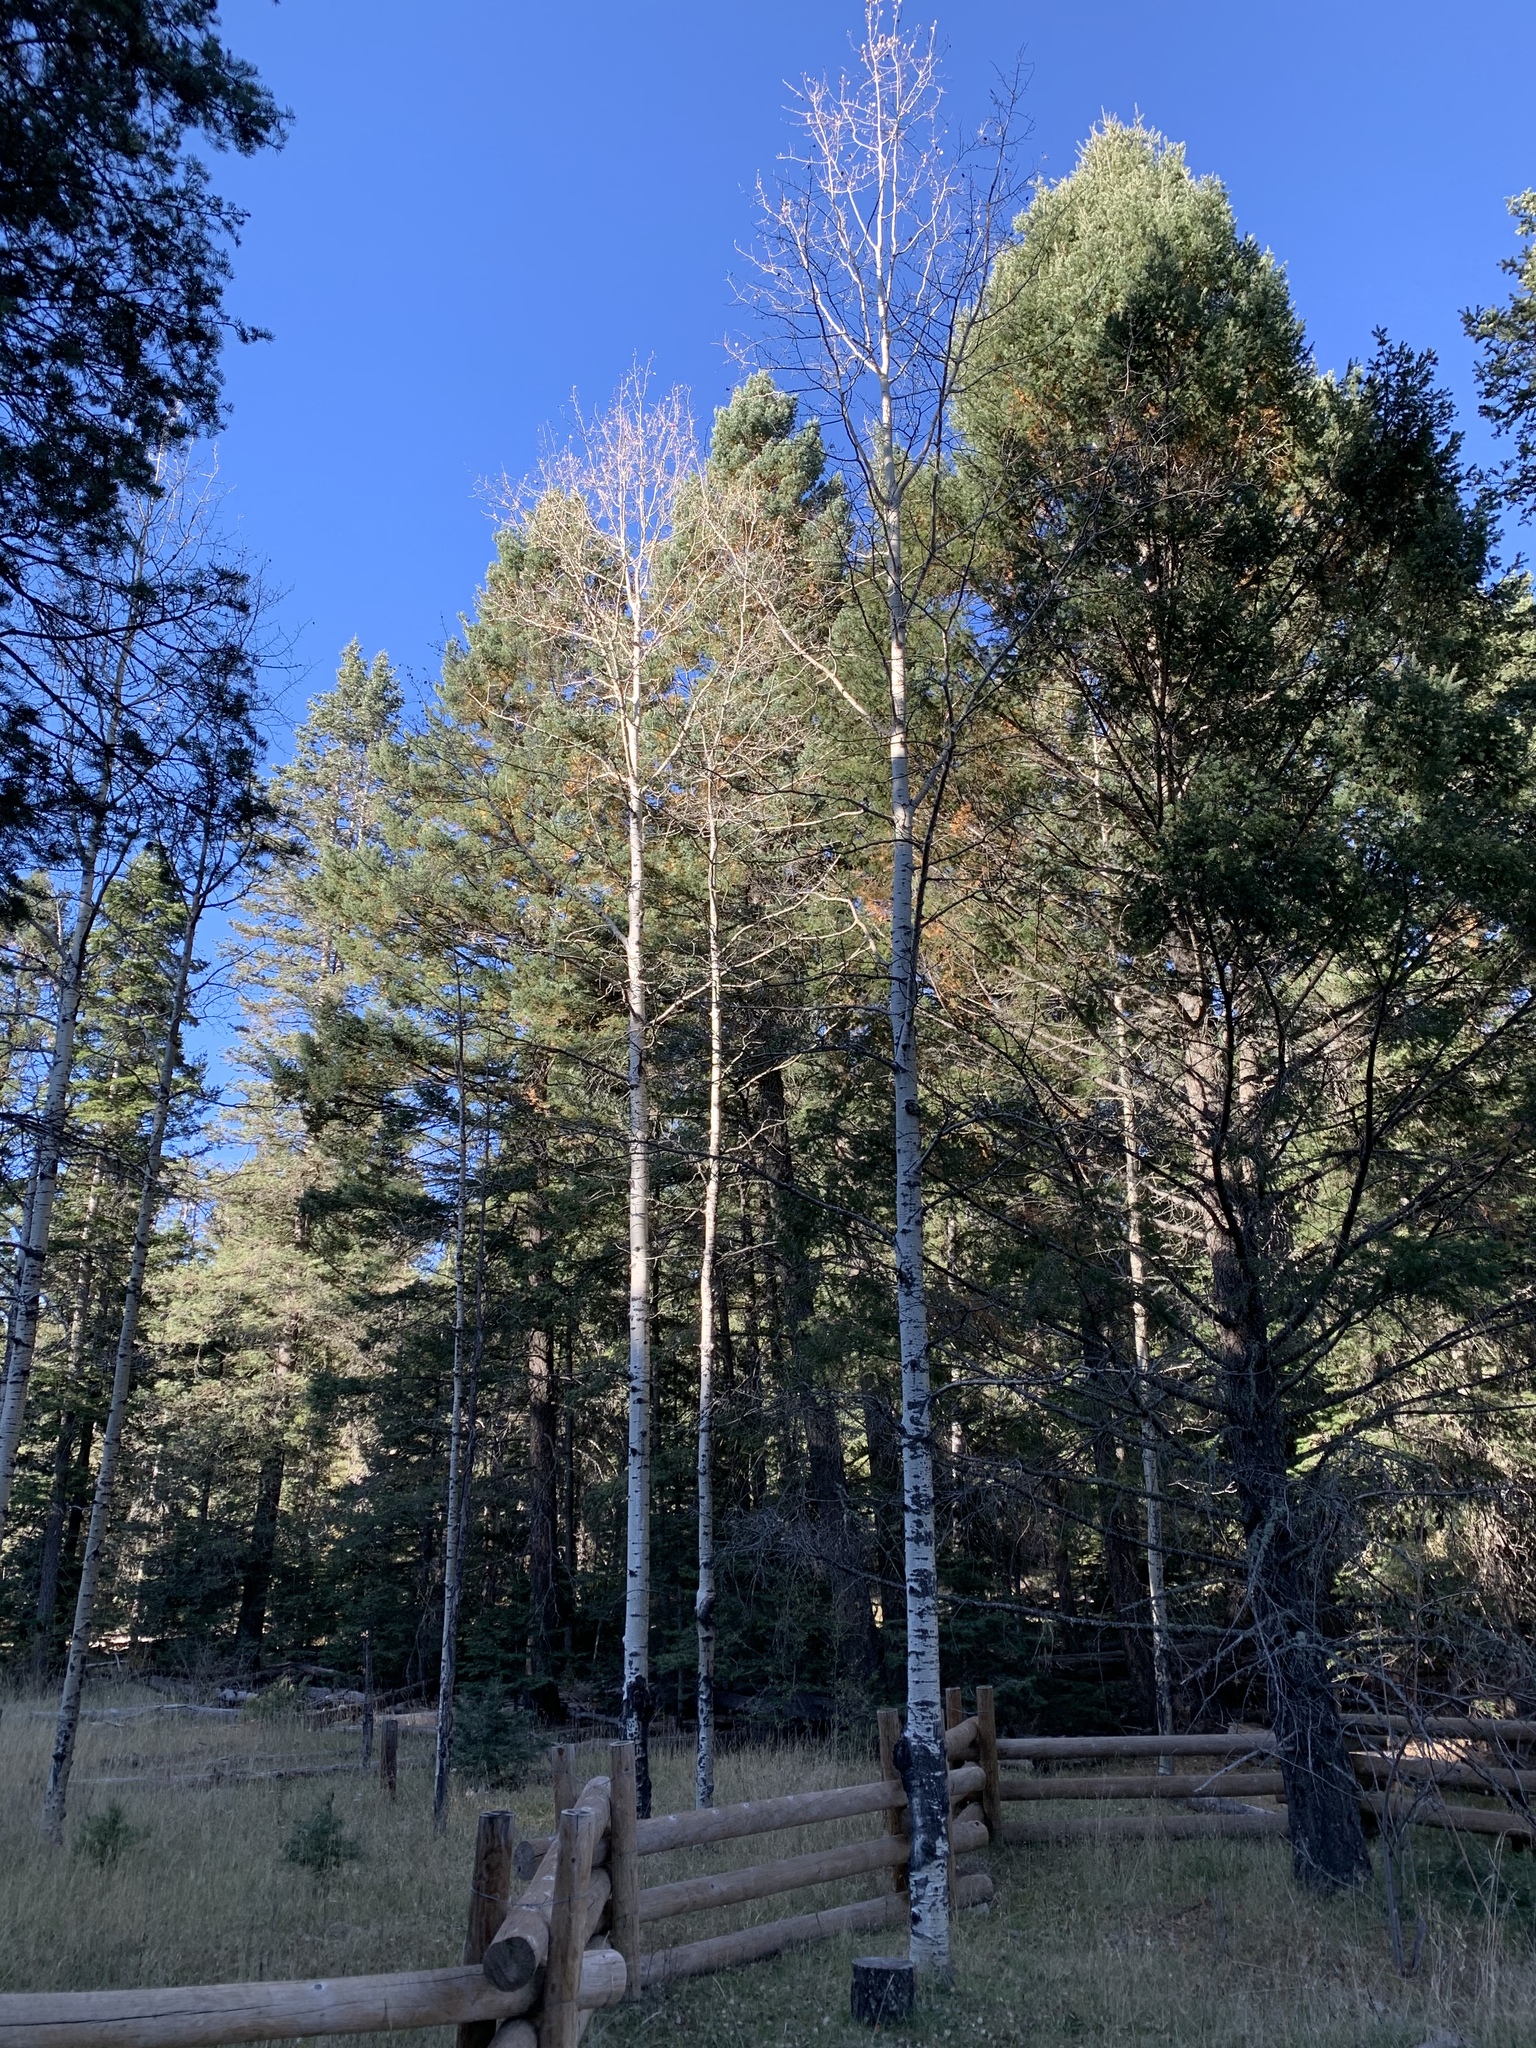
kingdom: Plantae
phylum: Tracheophyta
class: Magnoliopsida
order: Malpighiales
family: Salicaceae
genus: Populus
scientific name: Populus tremuloides
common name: Quaking aspen
